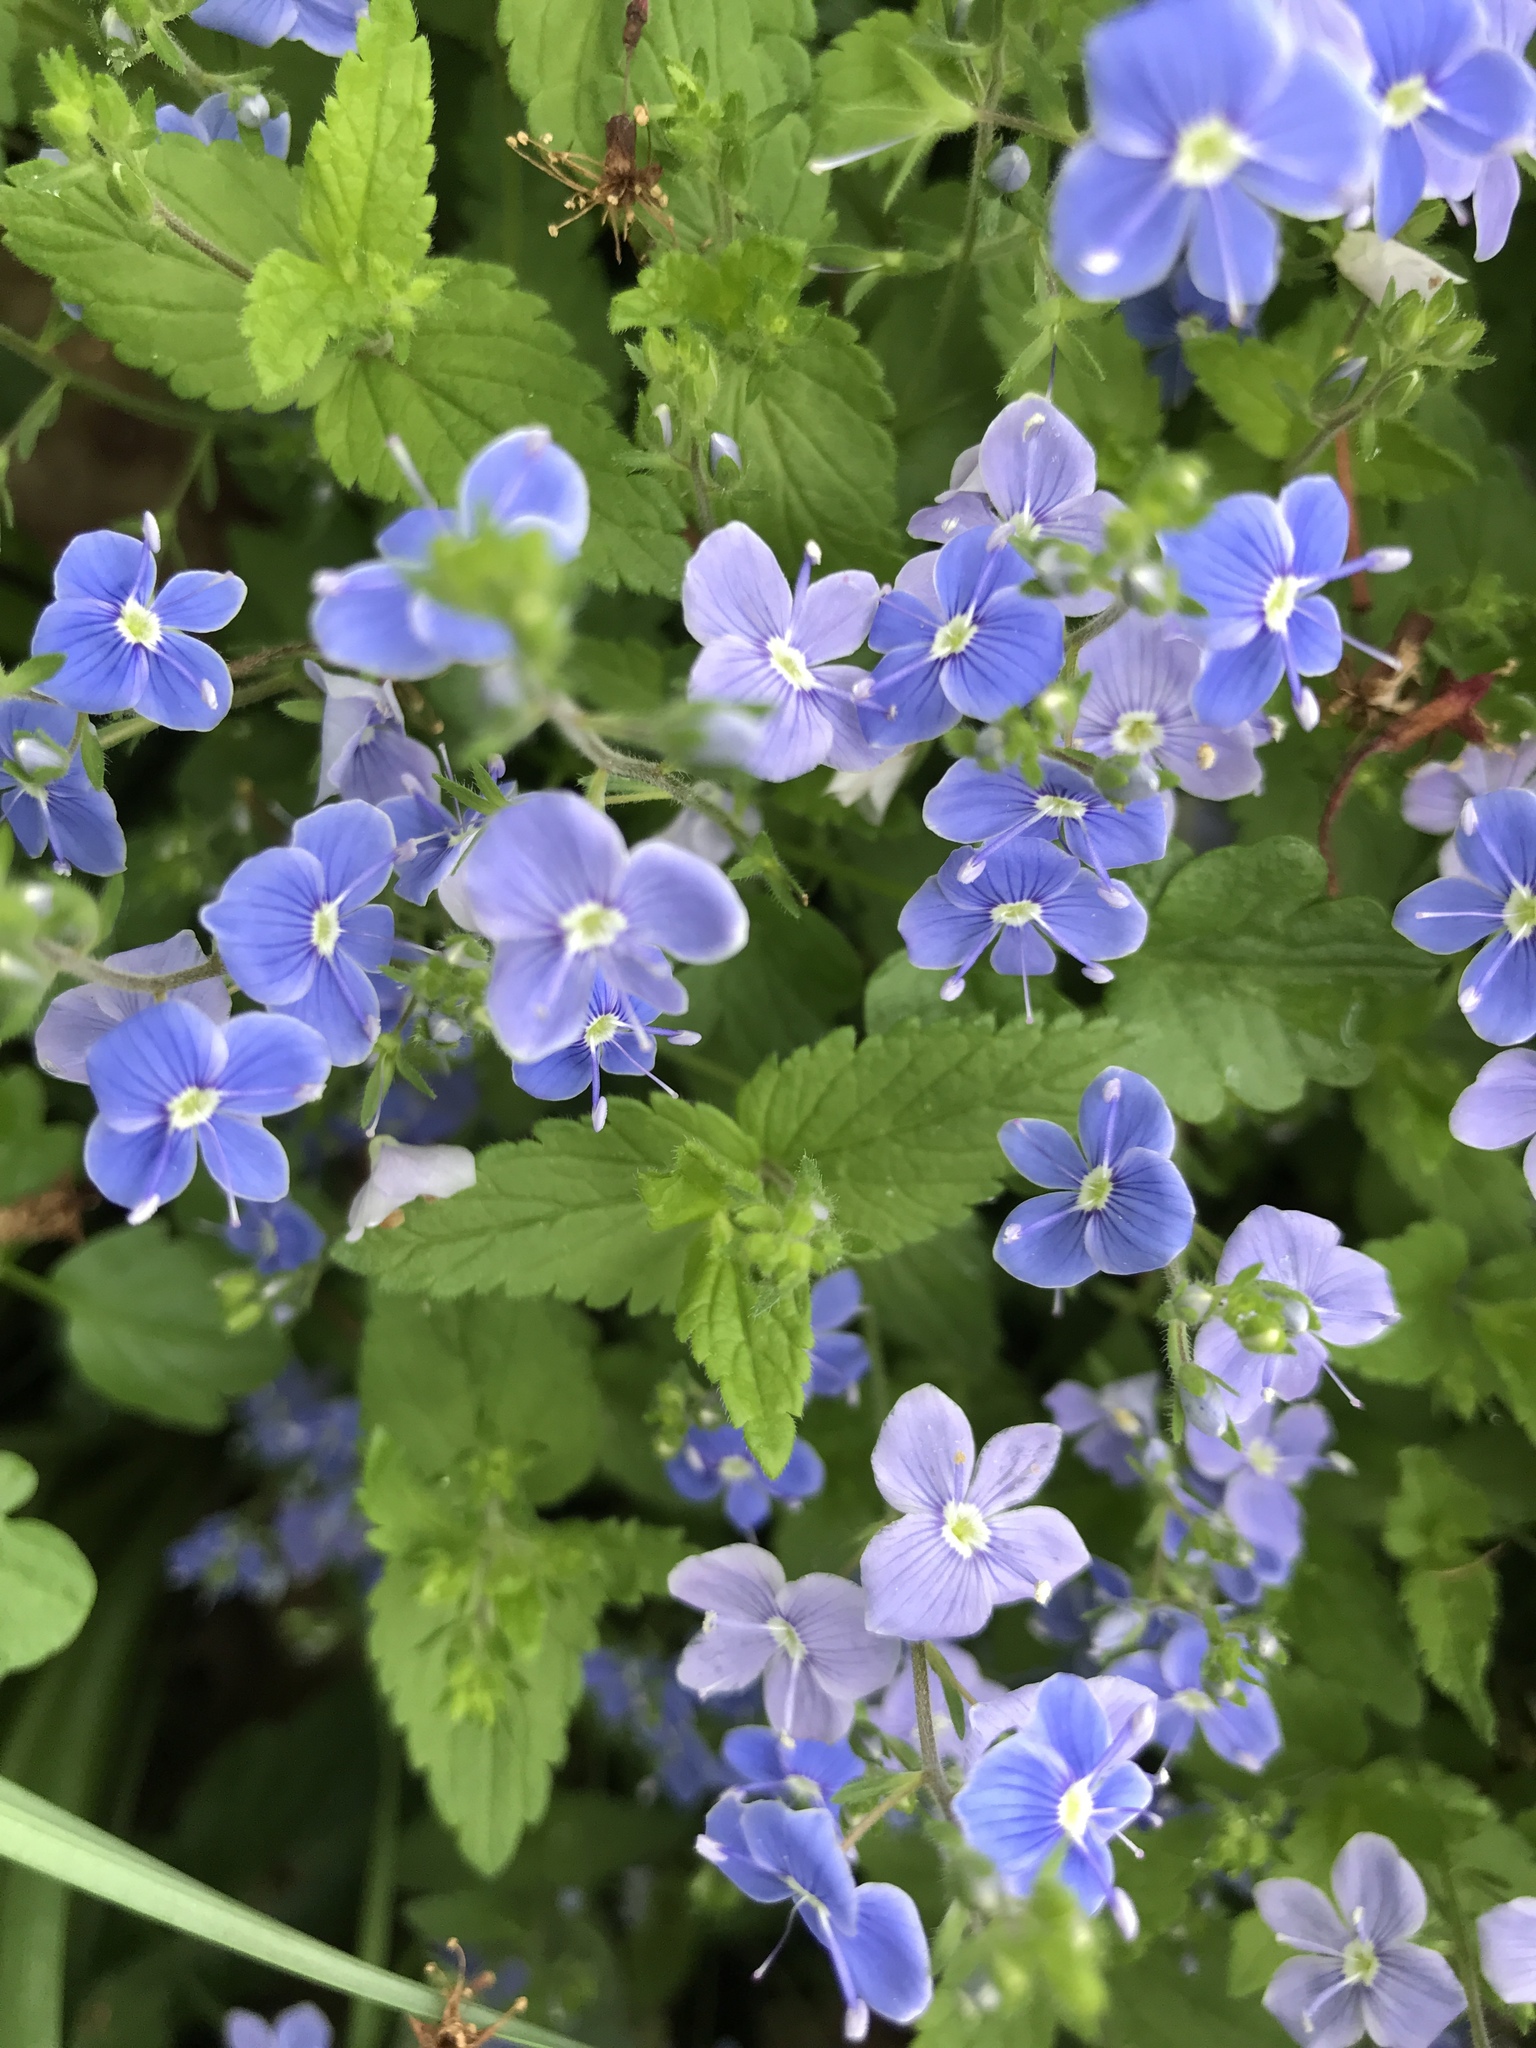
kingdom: Plantae
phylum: Tracheophyta
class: Magnoliopsida
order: Lamiales
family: Plantaginaceae
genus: Veronica
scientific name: Veronica chamaedrys
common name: Germander speedwell
